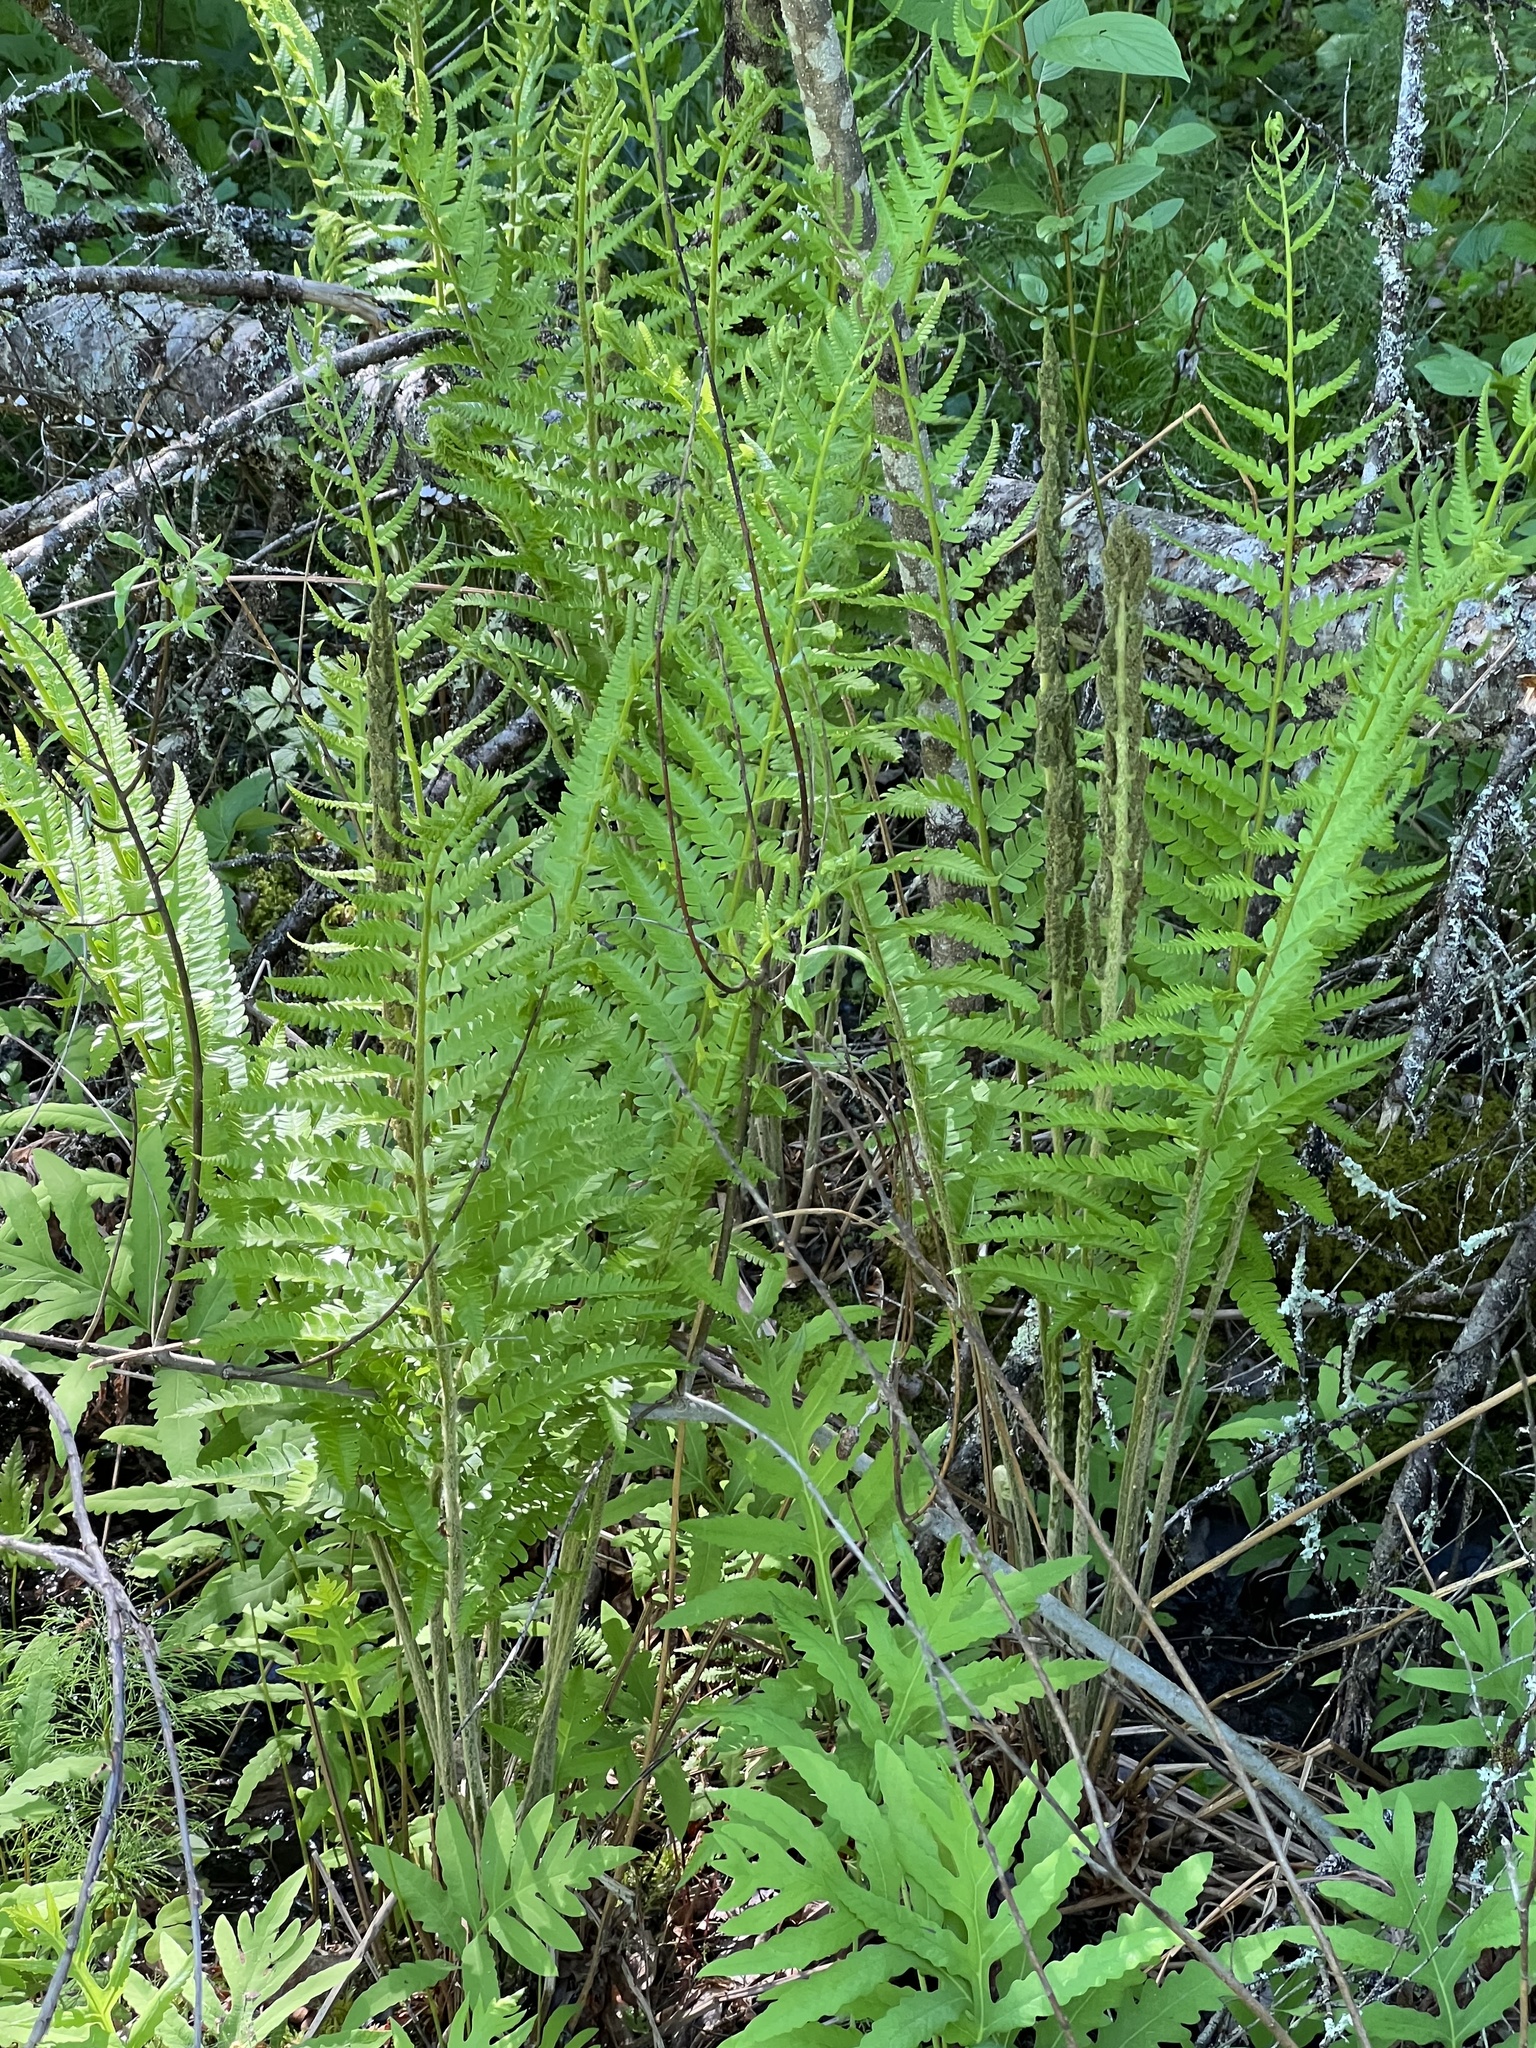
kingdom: Plantae
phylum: Tracheophyta
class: Polypodiopsida
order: Osmundales
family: Osmundaceae
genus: Osmundastrum
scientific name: Osmundastrum cinnamomeum
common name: Cinnamon fern
